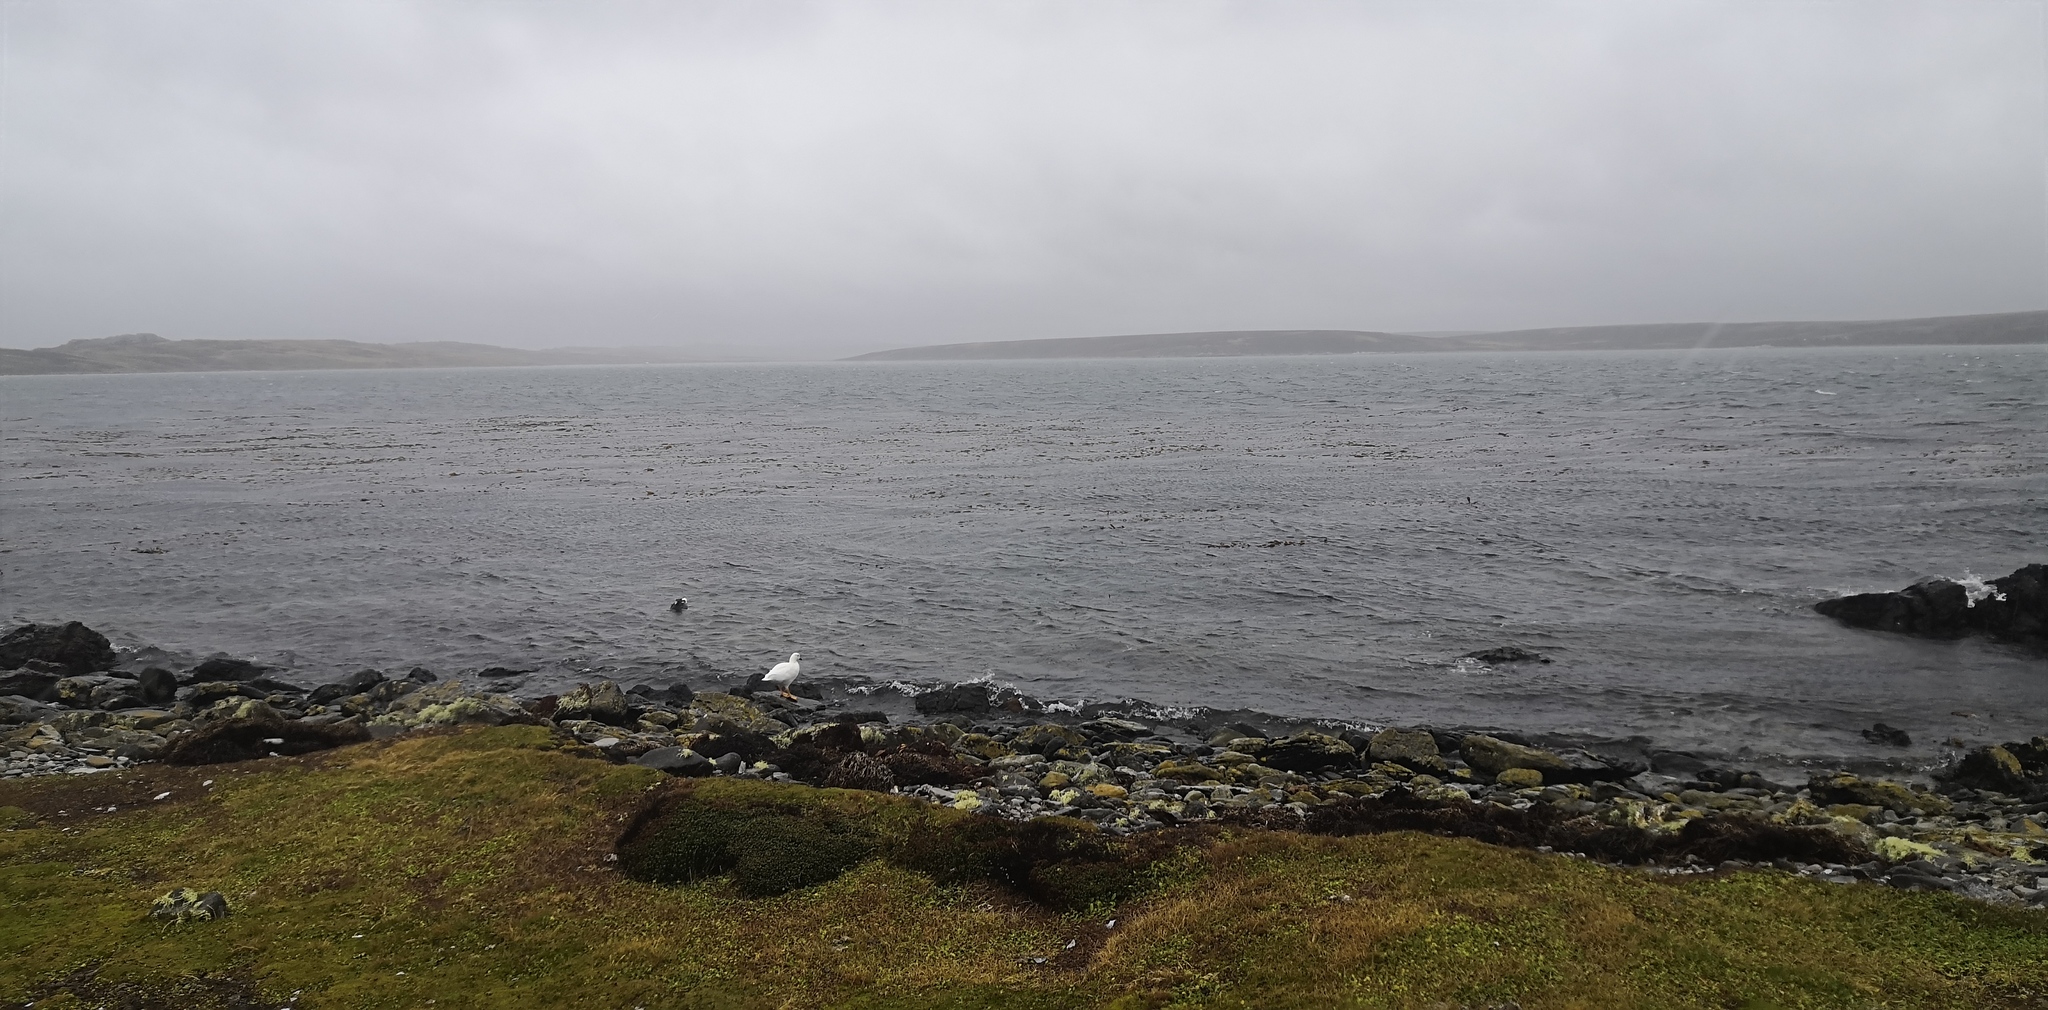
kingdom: Animalia
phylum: Chordata
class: Aves
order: Anseriformes
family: Anatidae
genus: Chloephaga
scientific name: Chloephaga hybrida
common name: Kelp goose
